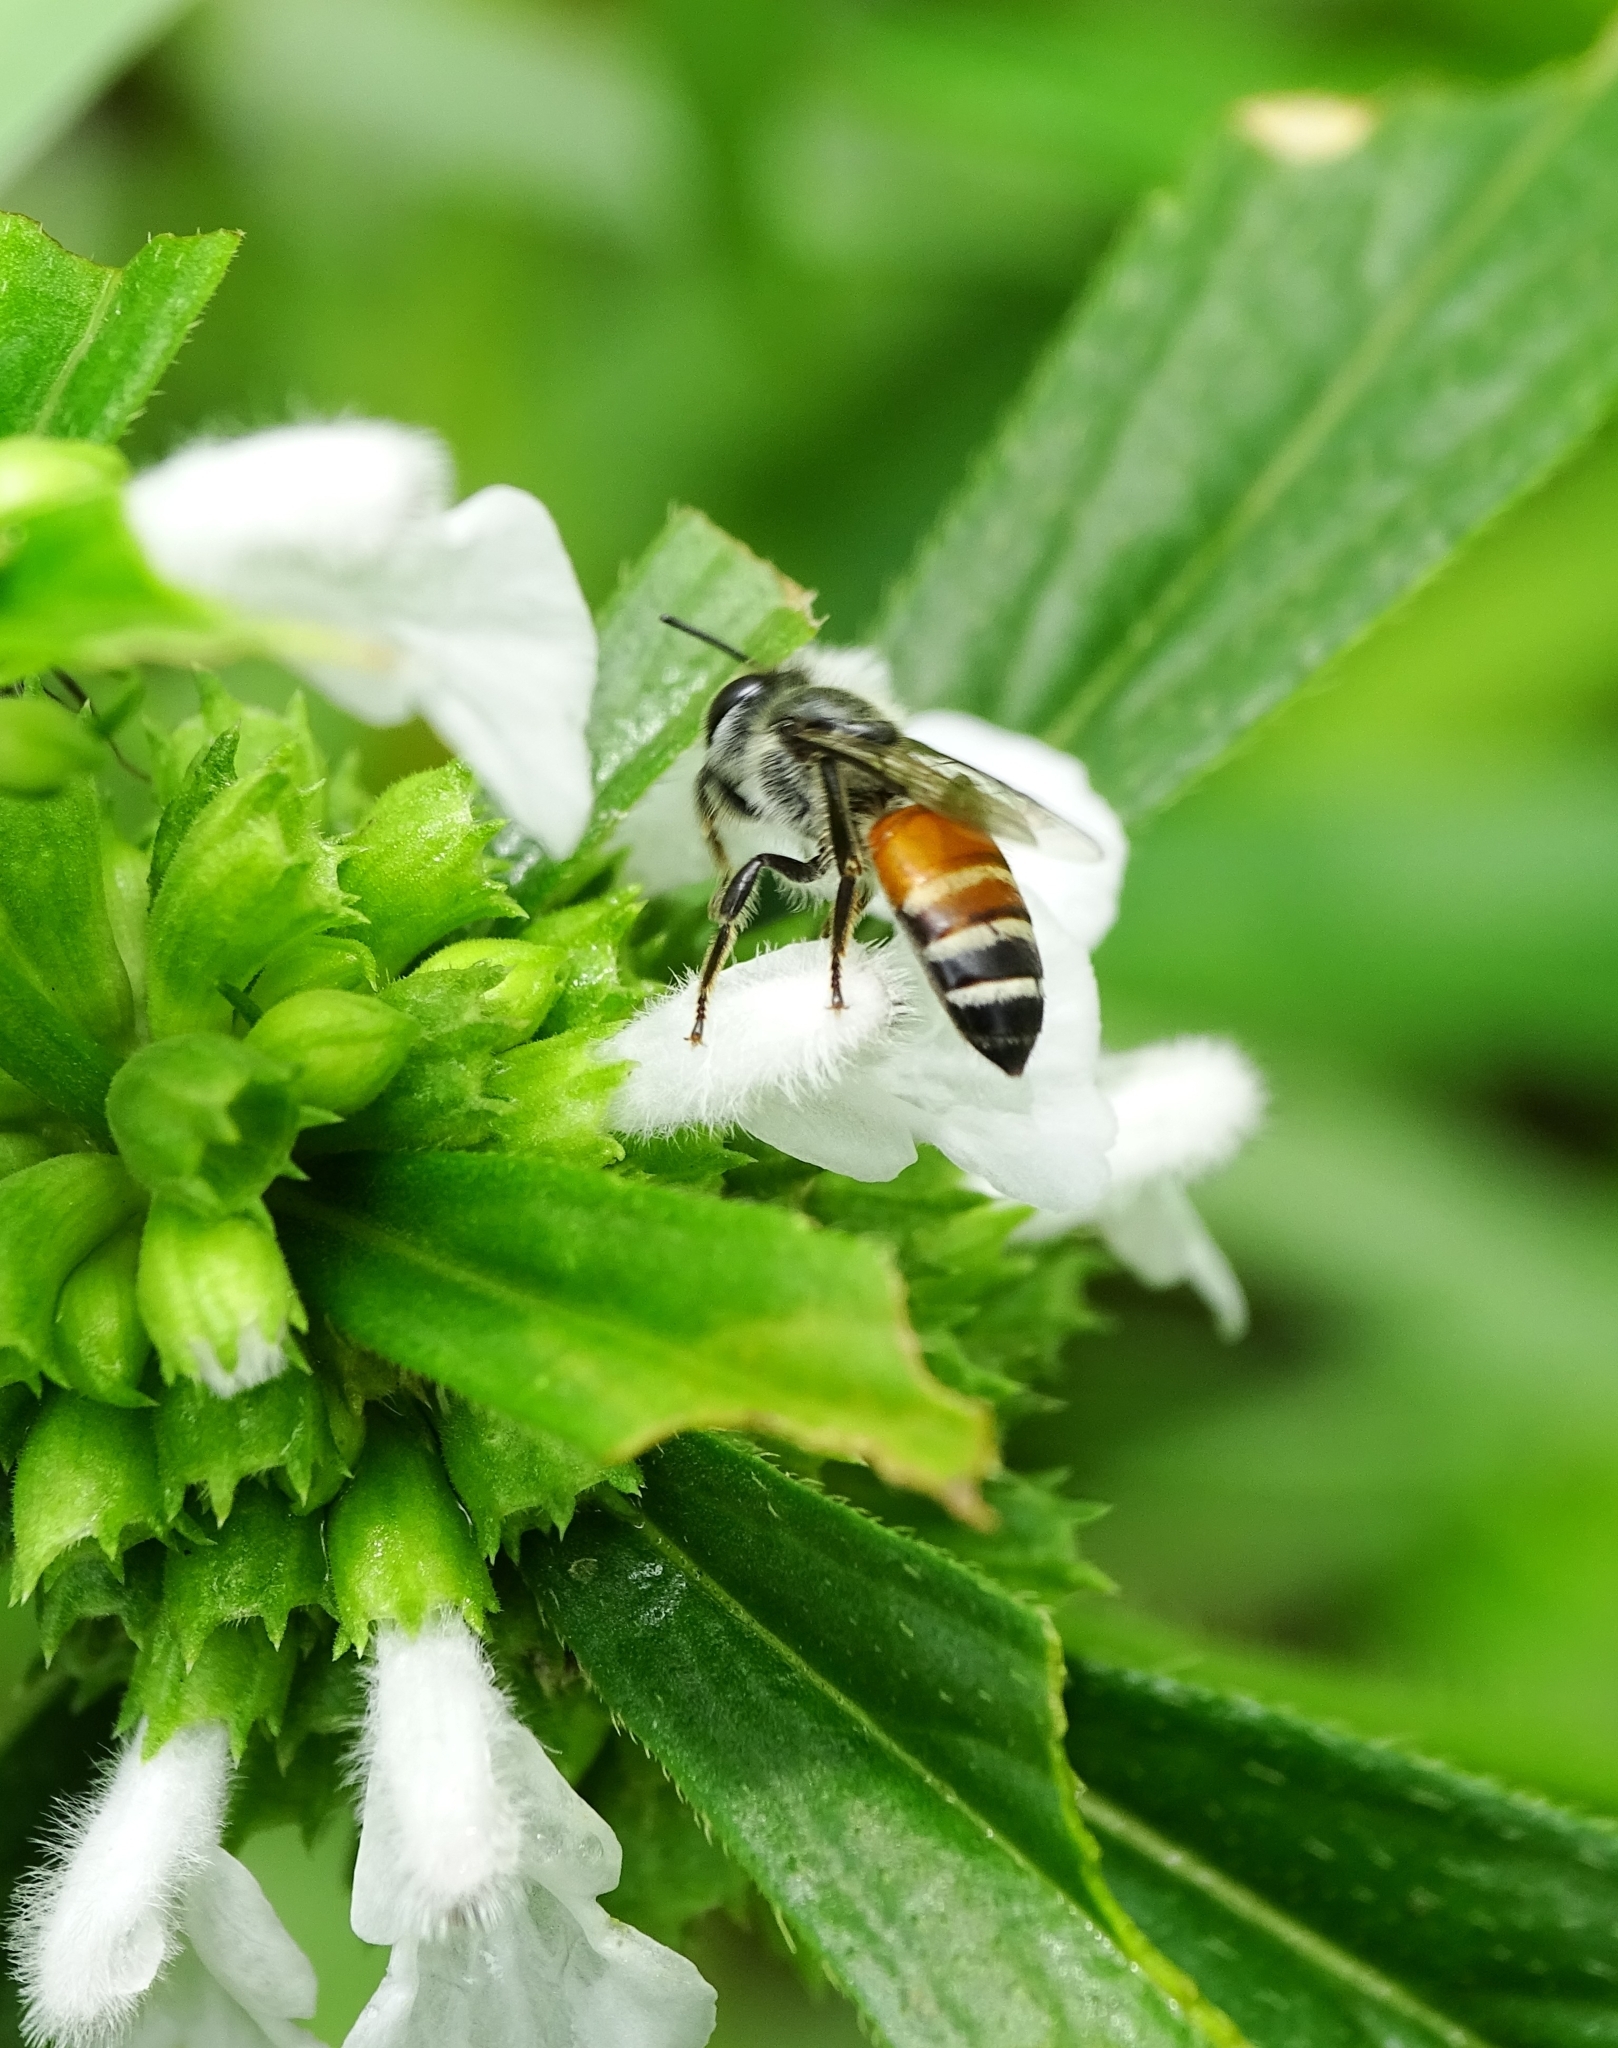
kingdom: Animalia
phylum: Arthropoda
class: Insecta
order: Hymenoptera
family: Apidae
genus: Apis
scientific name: Apis florea
